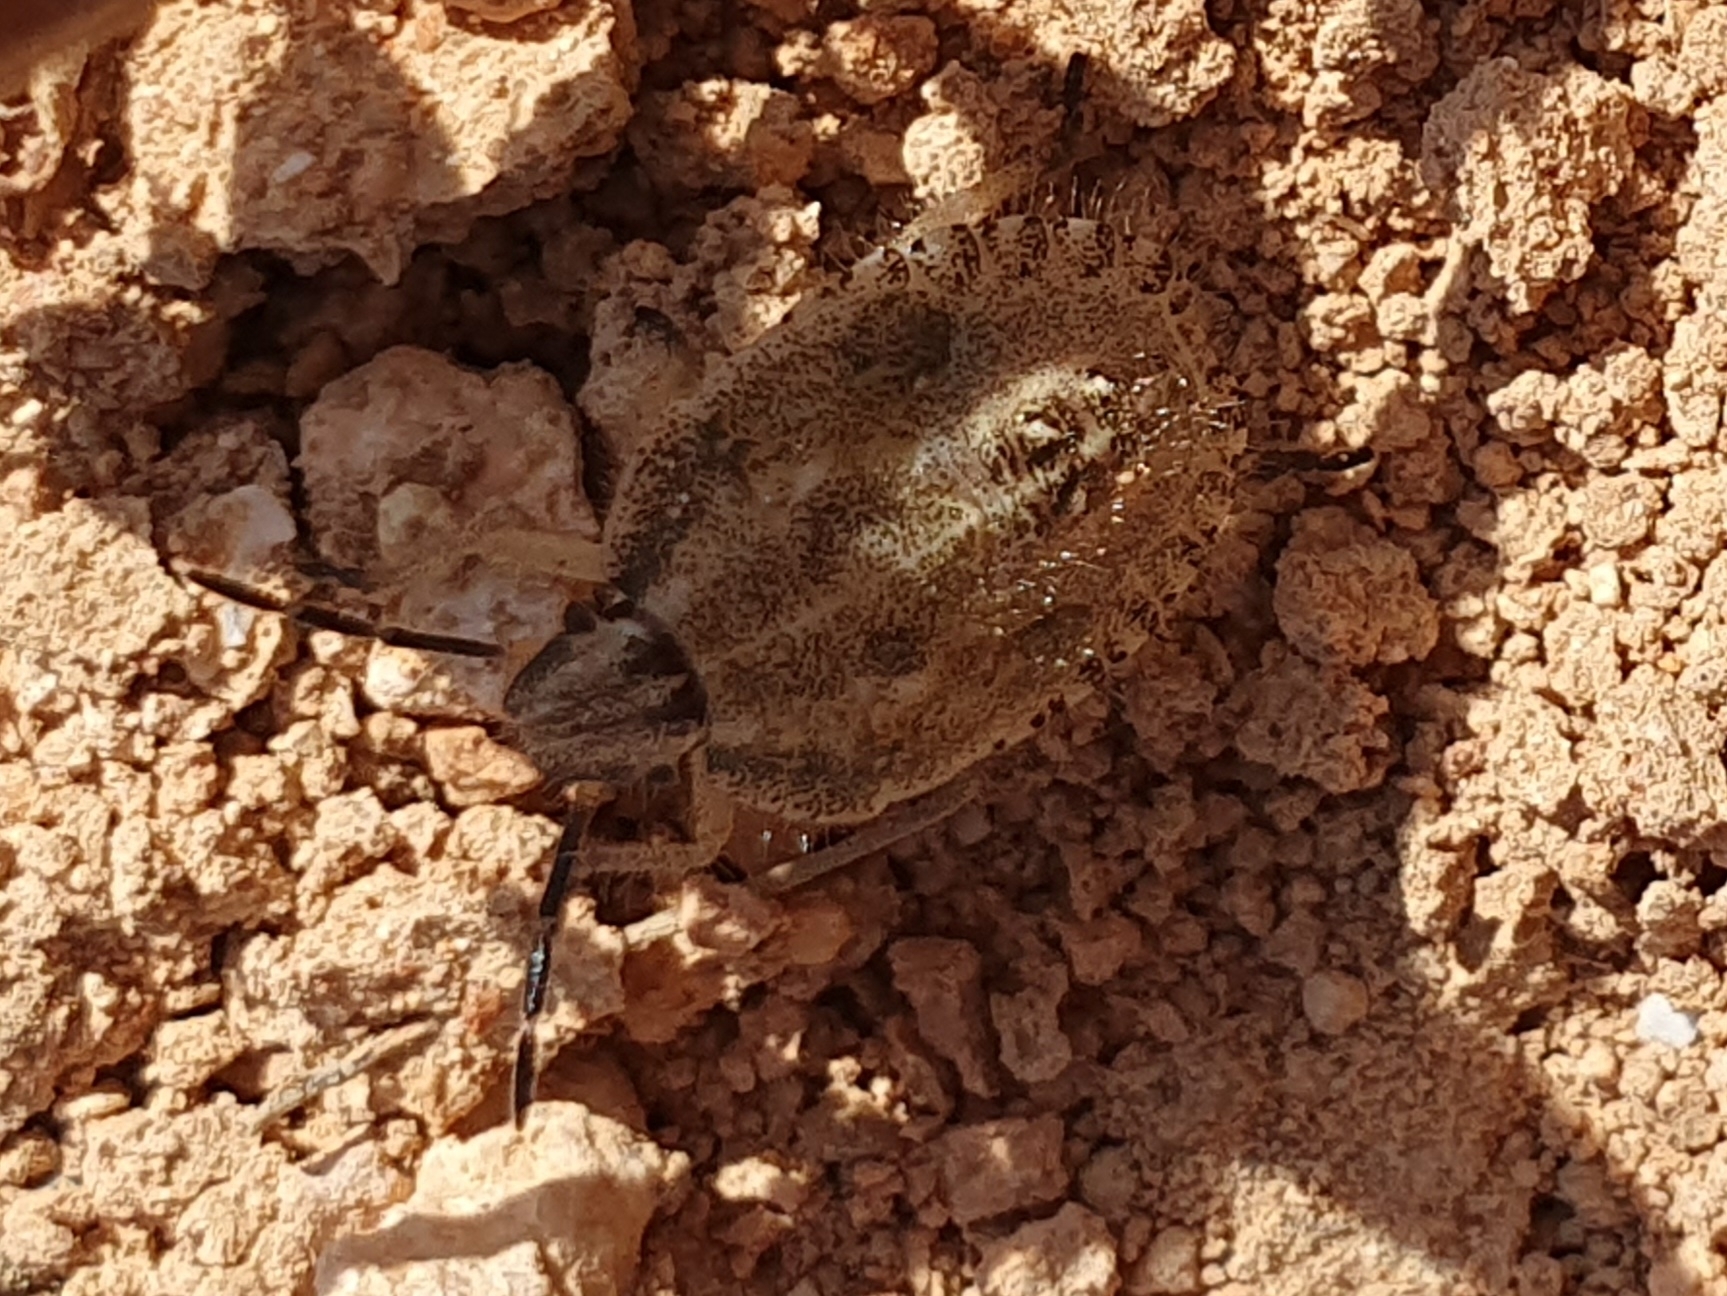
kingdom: Animalia
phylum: Arthropoda
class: Insecta
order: Hemiptera
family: Pentatomidae
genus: Dolycoris
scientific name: Dolycoris numidicus
